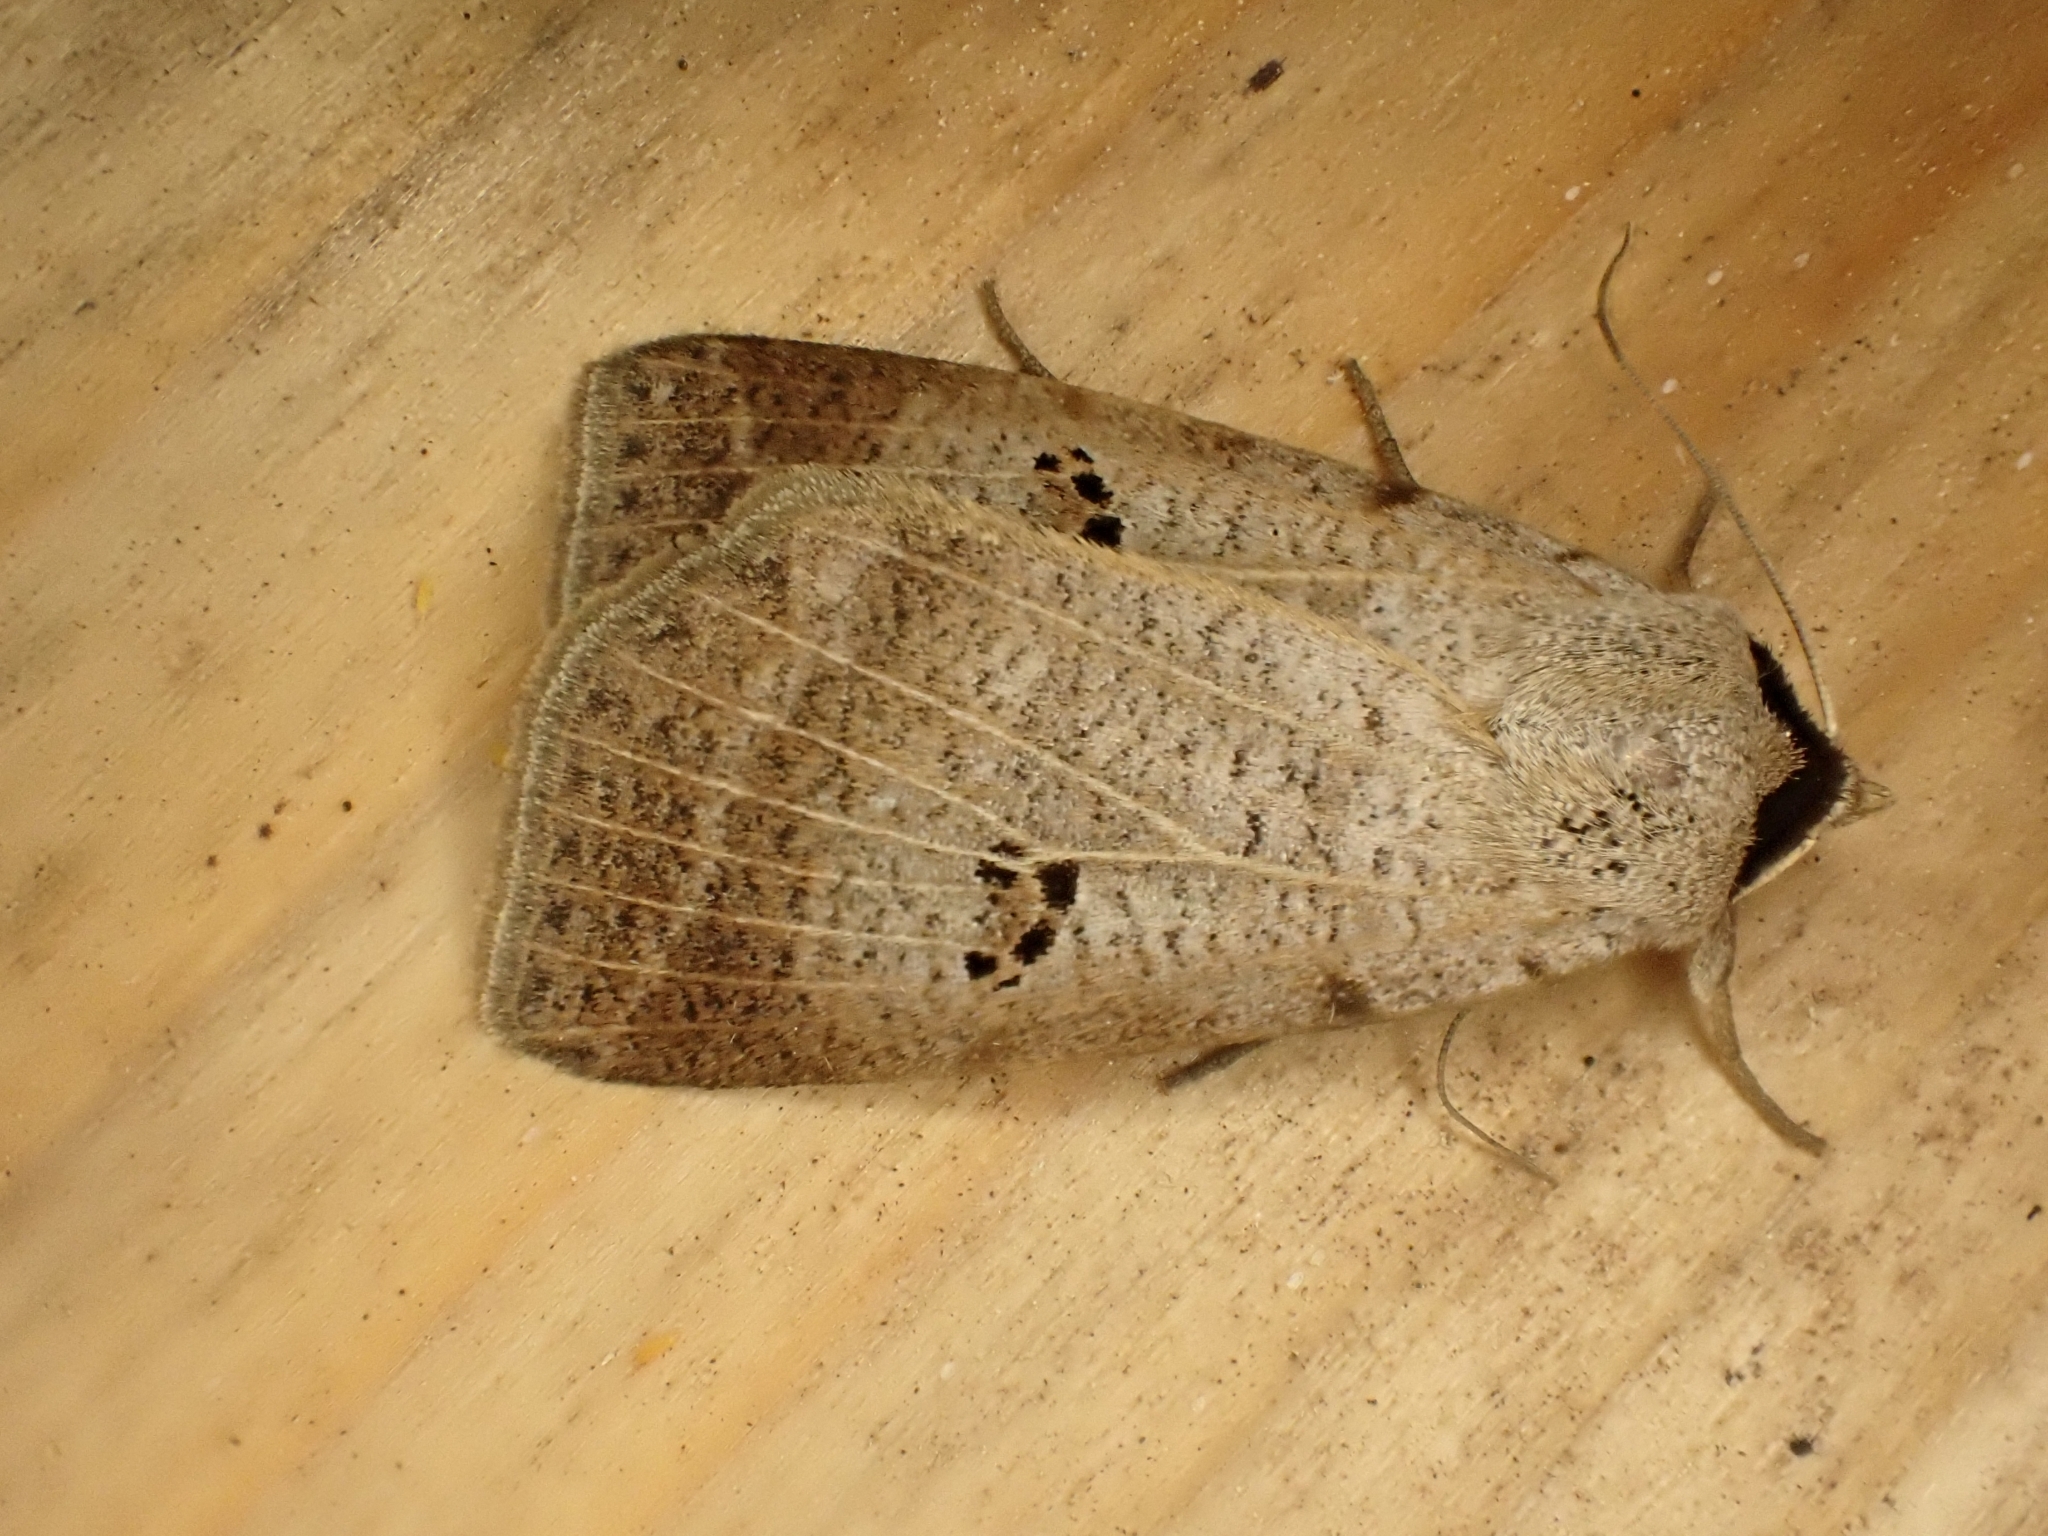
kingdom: Animalia
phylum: Arthropoda
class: Insecta
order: Lepidoptera
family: Erebidae
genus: Lygephila
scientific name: Lygephila craccae
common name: Scarce blackneck
